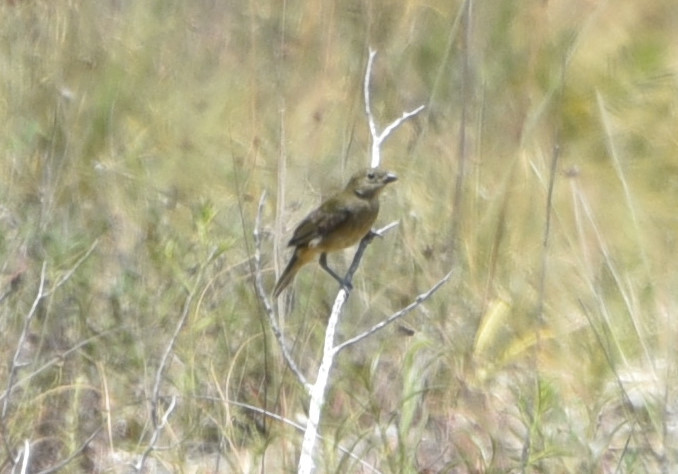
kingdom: Animalia
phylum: Chordata
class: Aves
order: Passeriformes
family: Cardinalidae
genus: Passerina
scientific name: Passerina ciris
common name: Painted bunting
